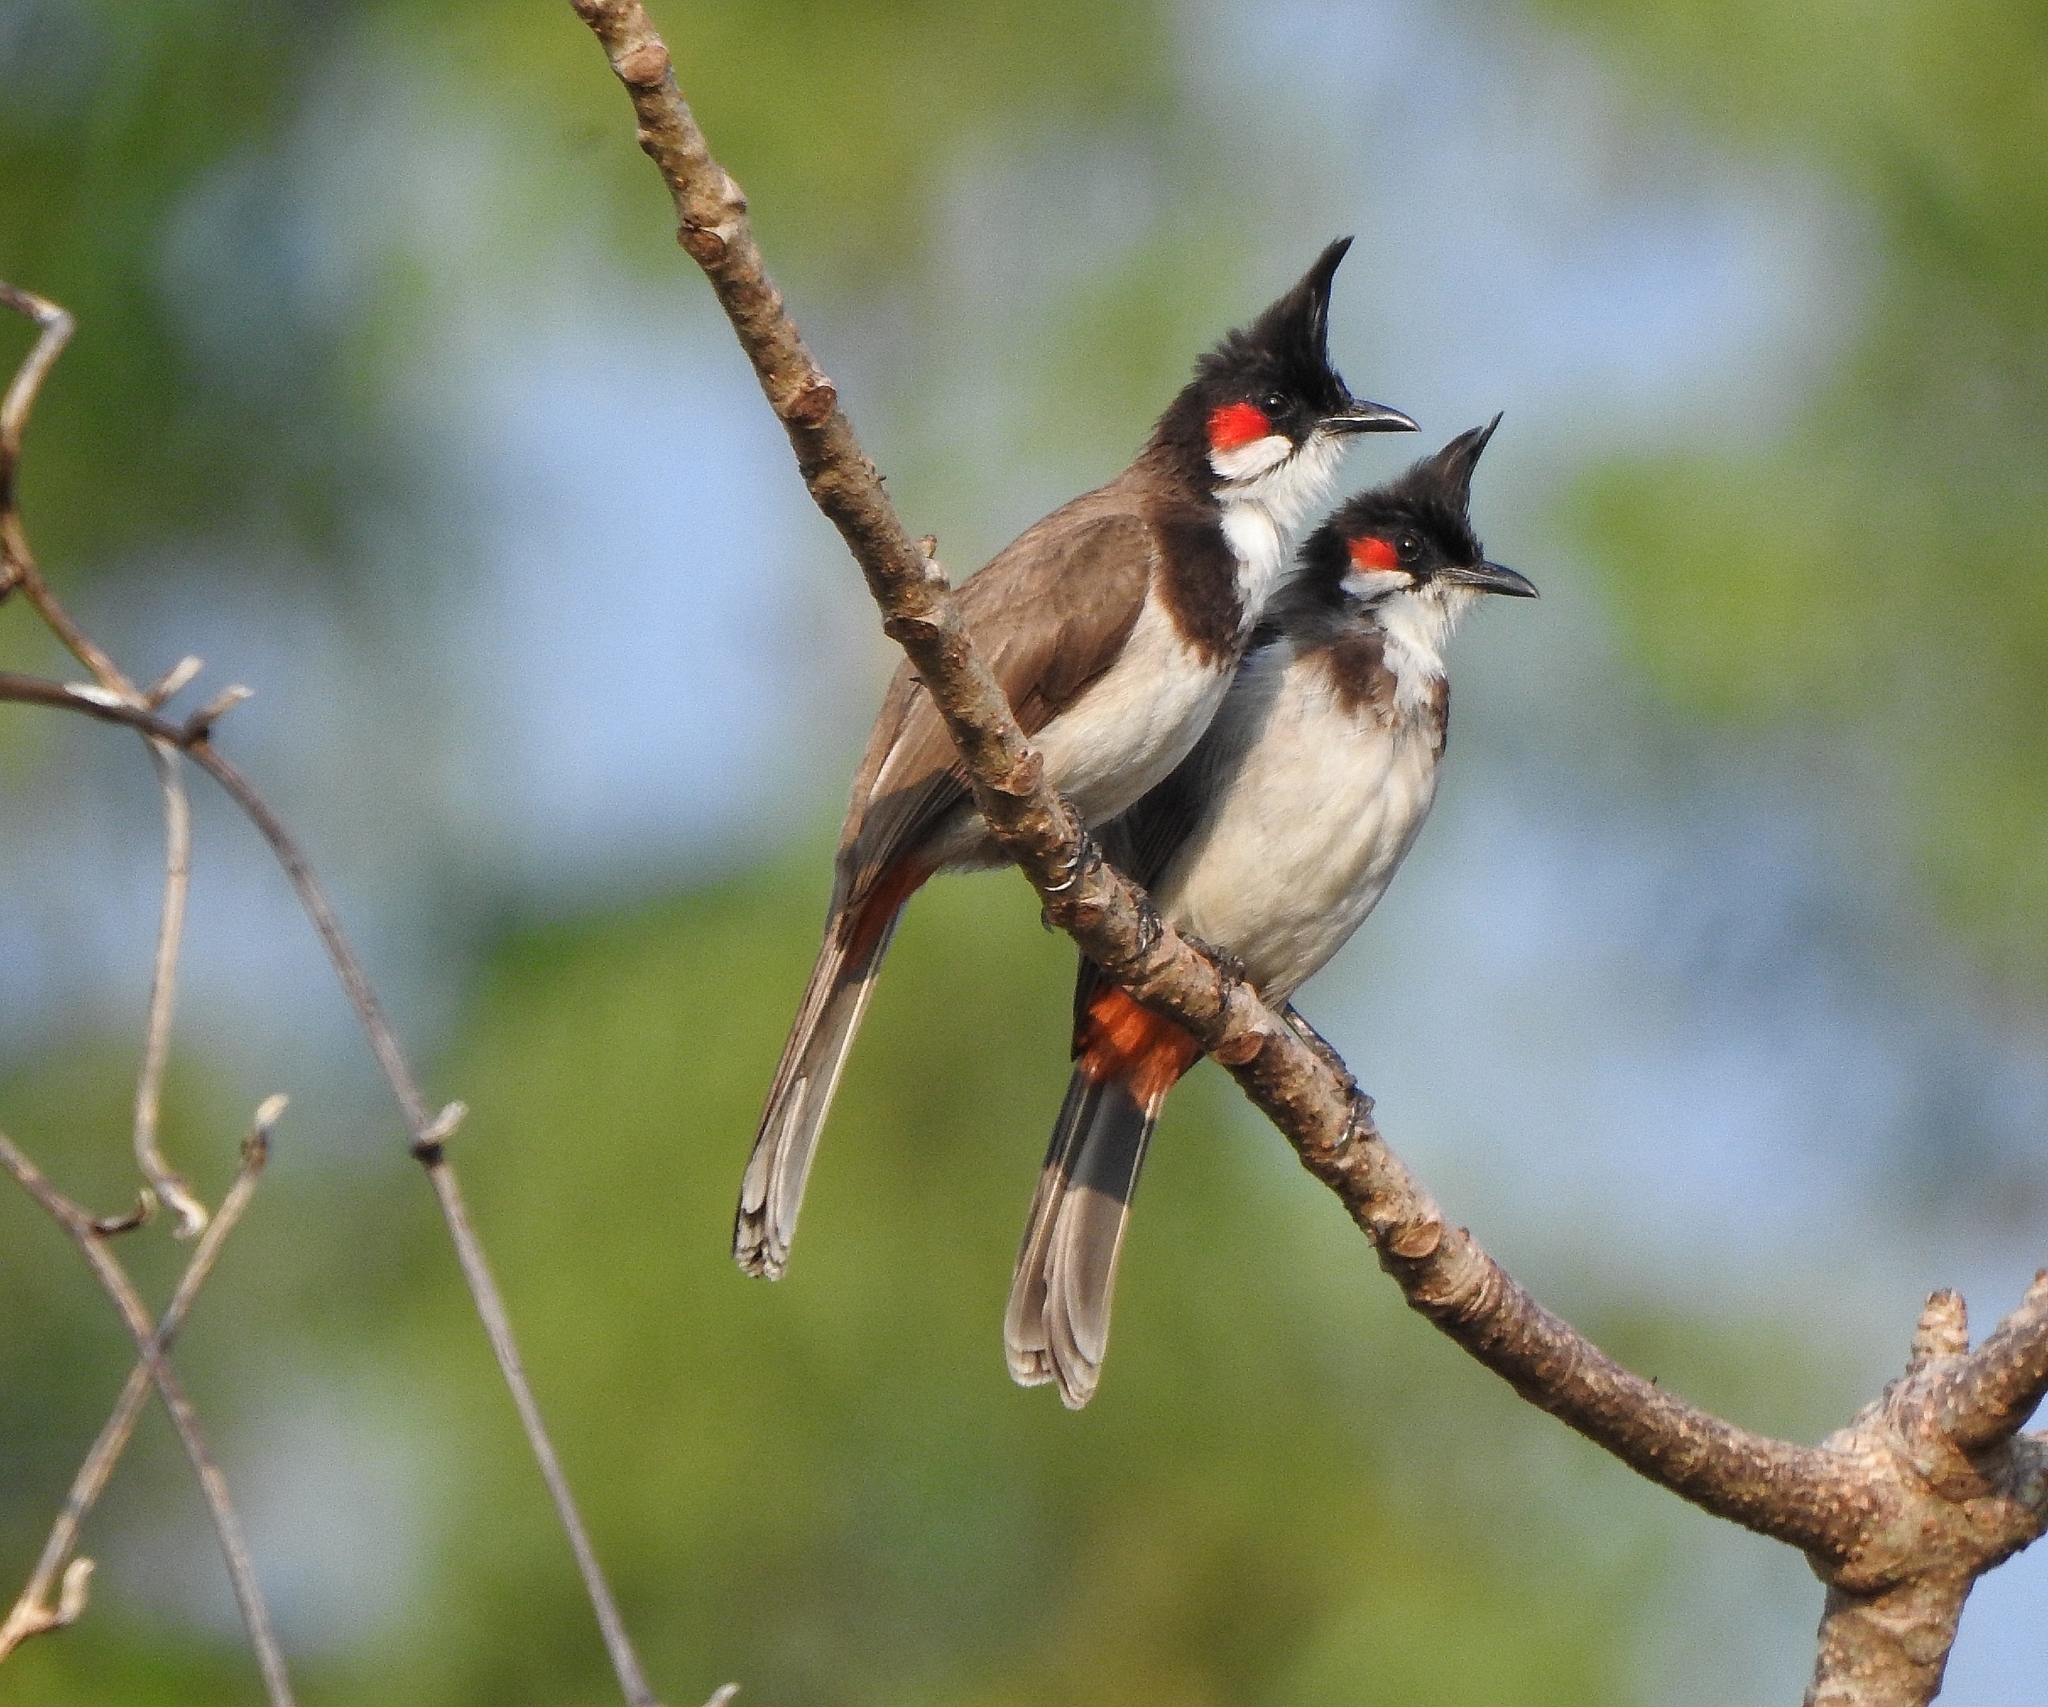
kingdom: Animalia
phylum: Chordata
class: Aves
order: Passeriformes
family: Pycnonotidae
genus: Pycnonotus
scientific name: Pycnonotus jocosus
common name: Red-whiskered bulbul
